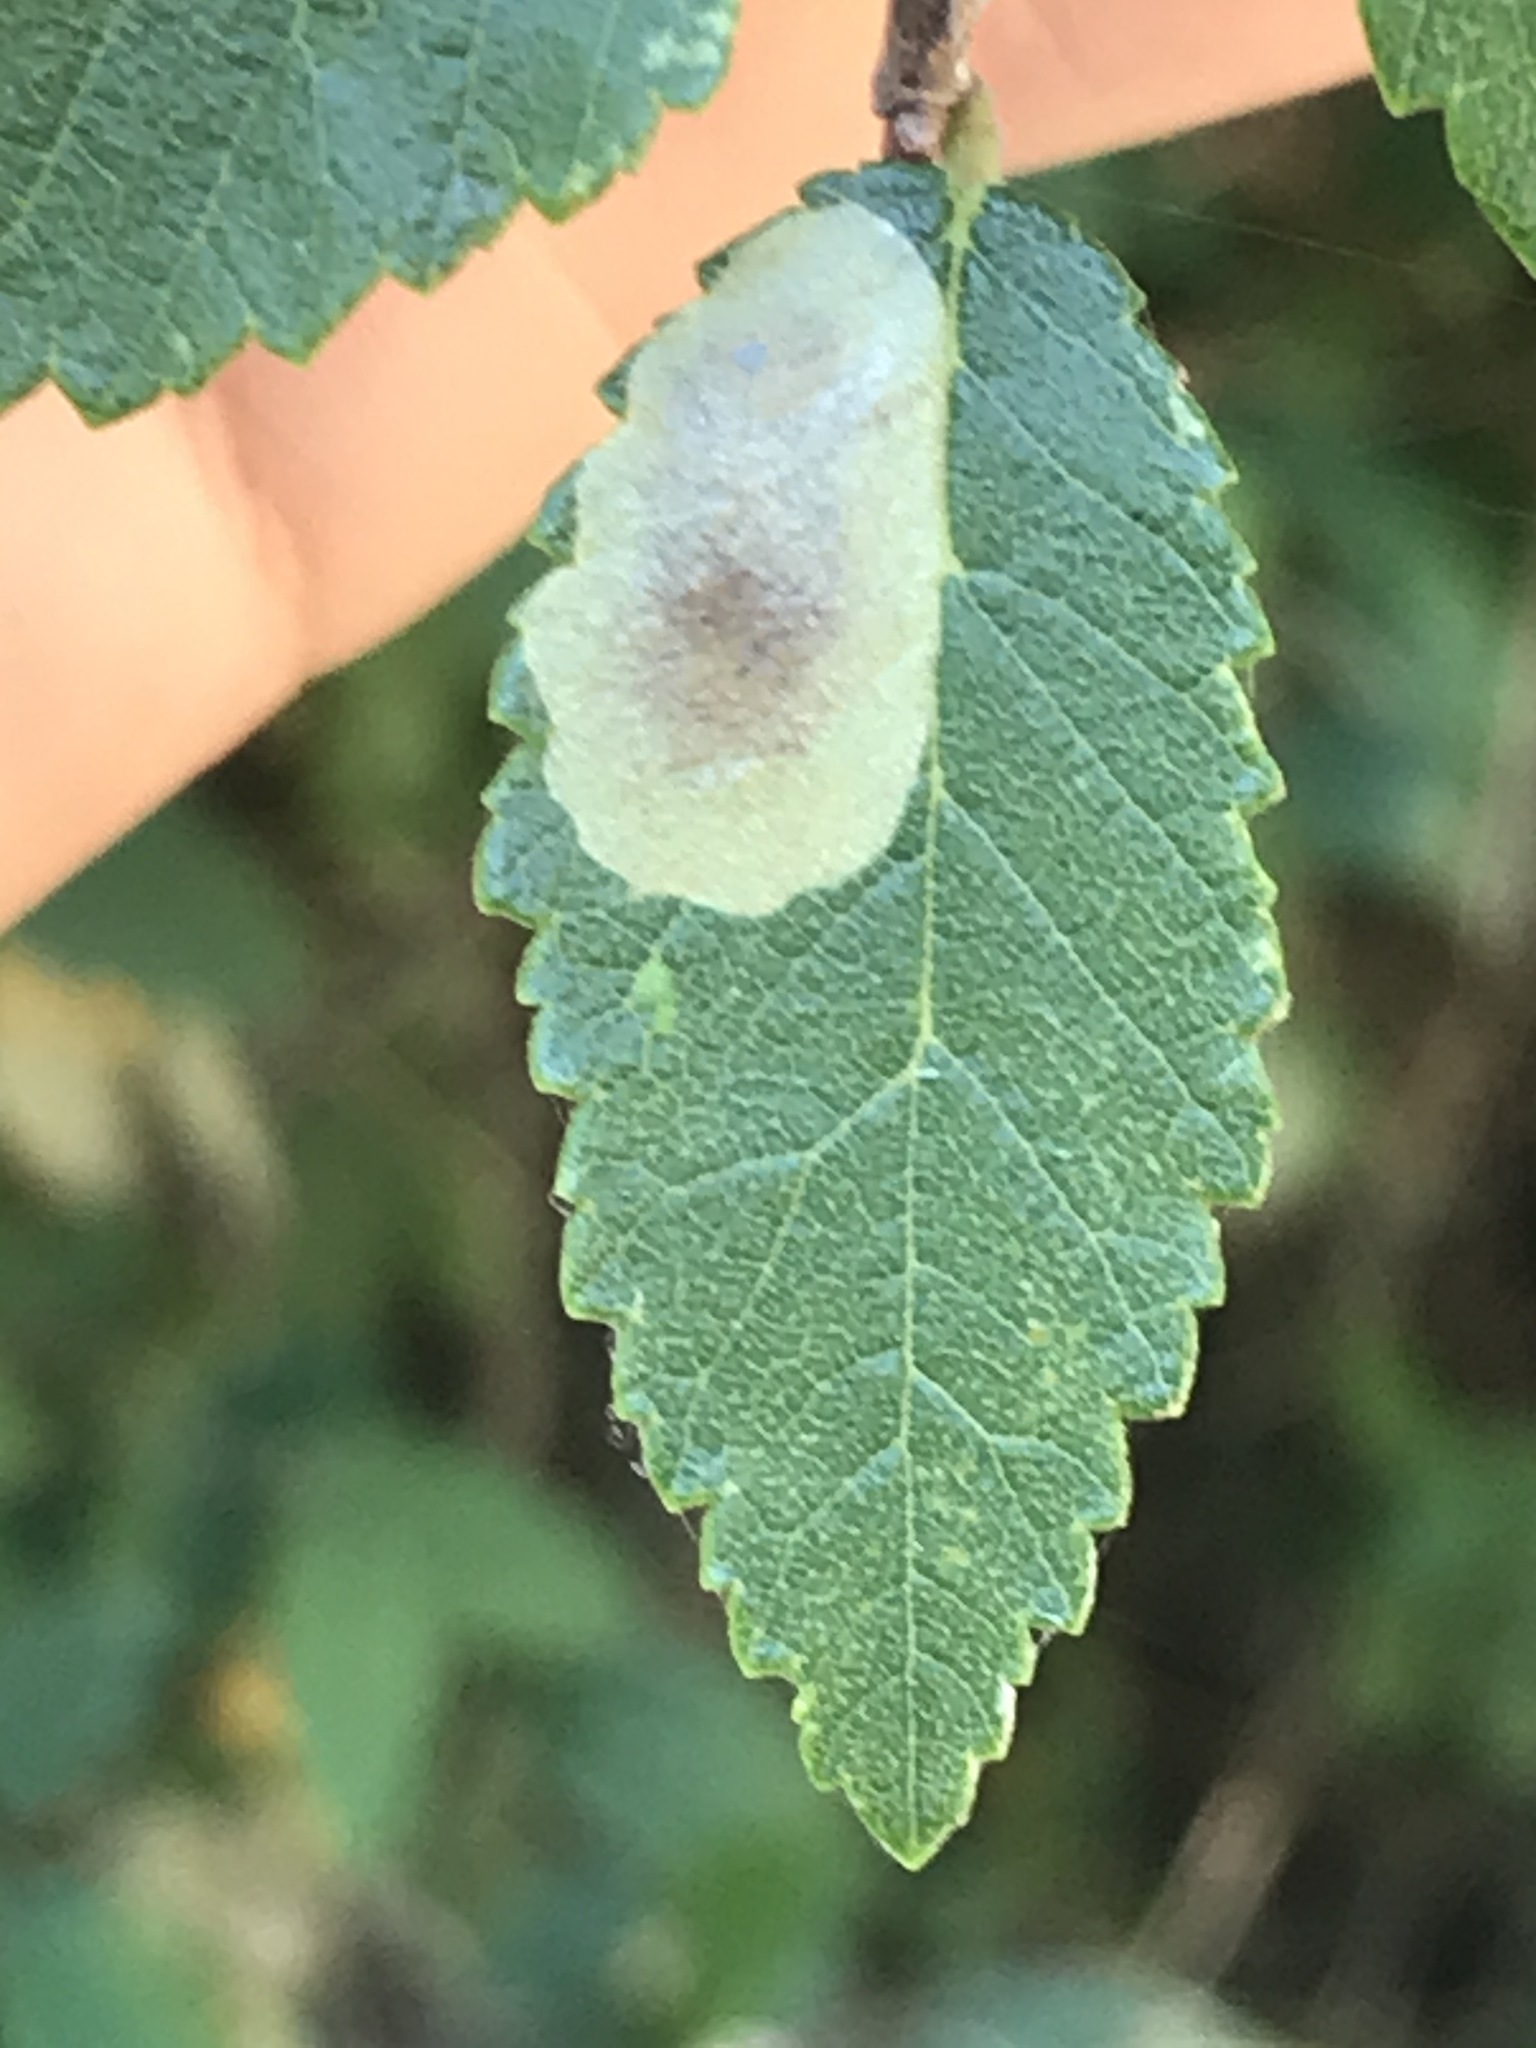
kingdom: Animalia
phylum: Arthropoda
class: Insecta
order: Lepidoptera
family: Gracillariidae
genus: Cameraria
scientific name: Cameraria ulmella
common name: Elm leafminer
